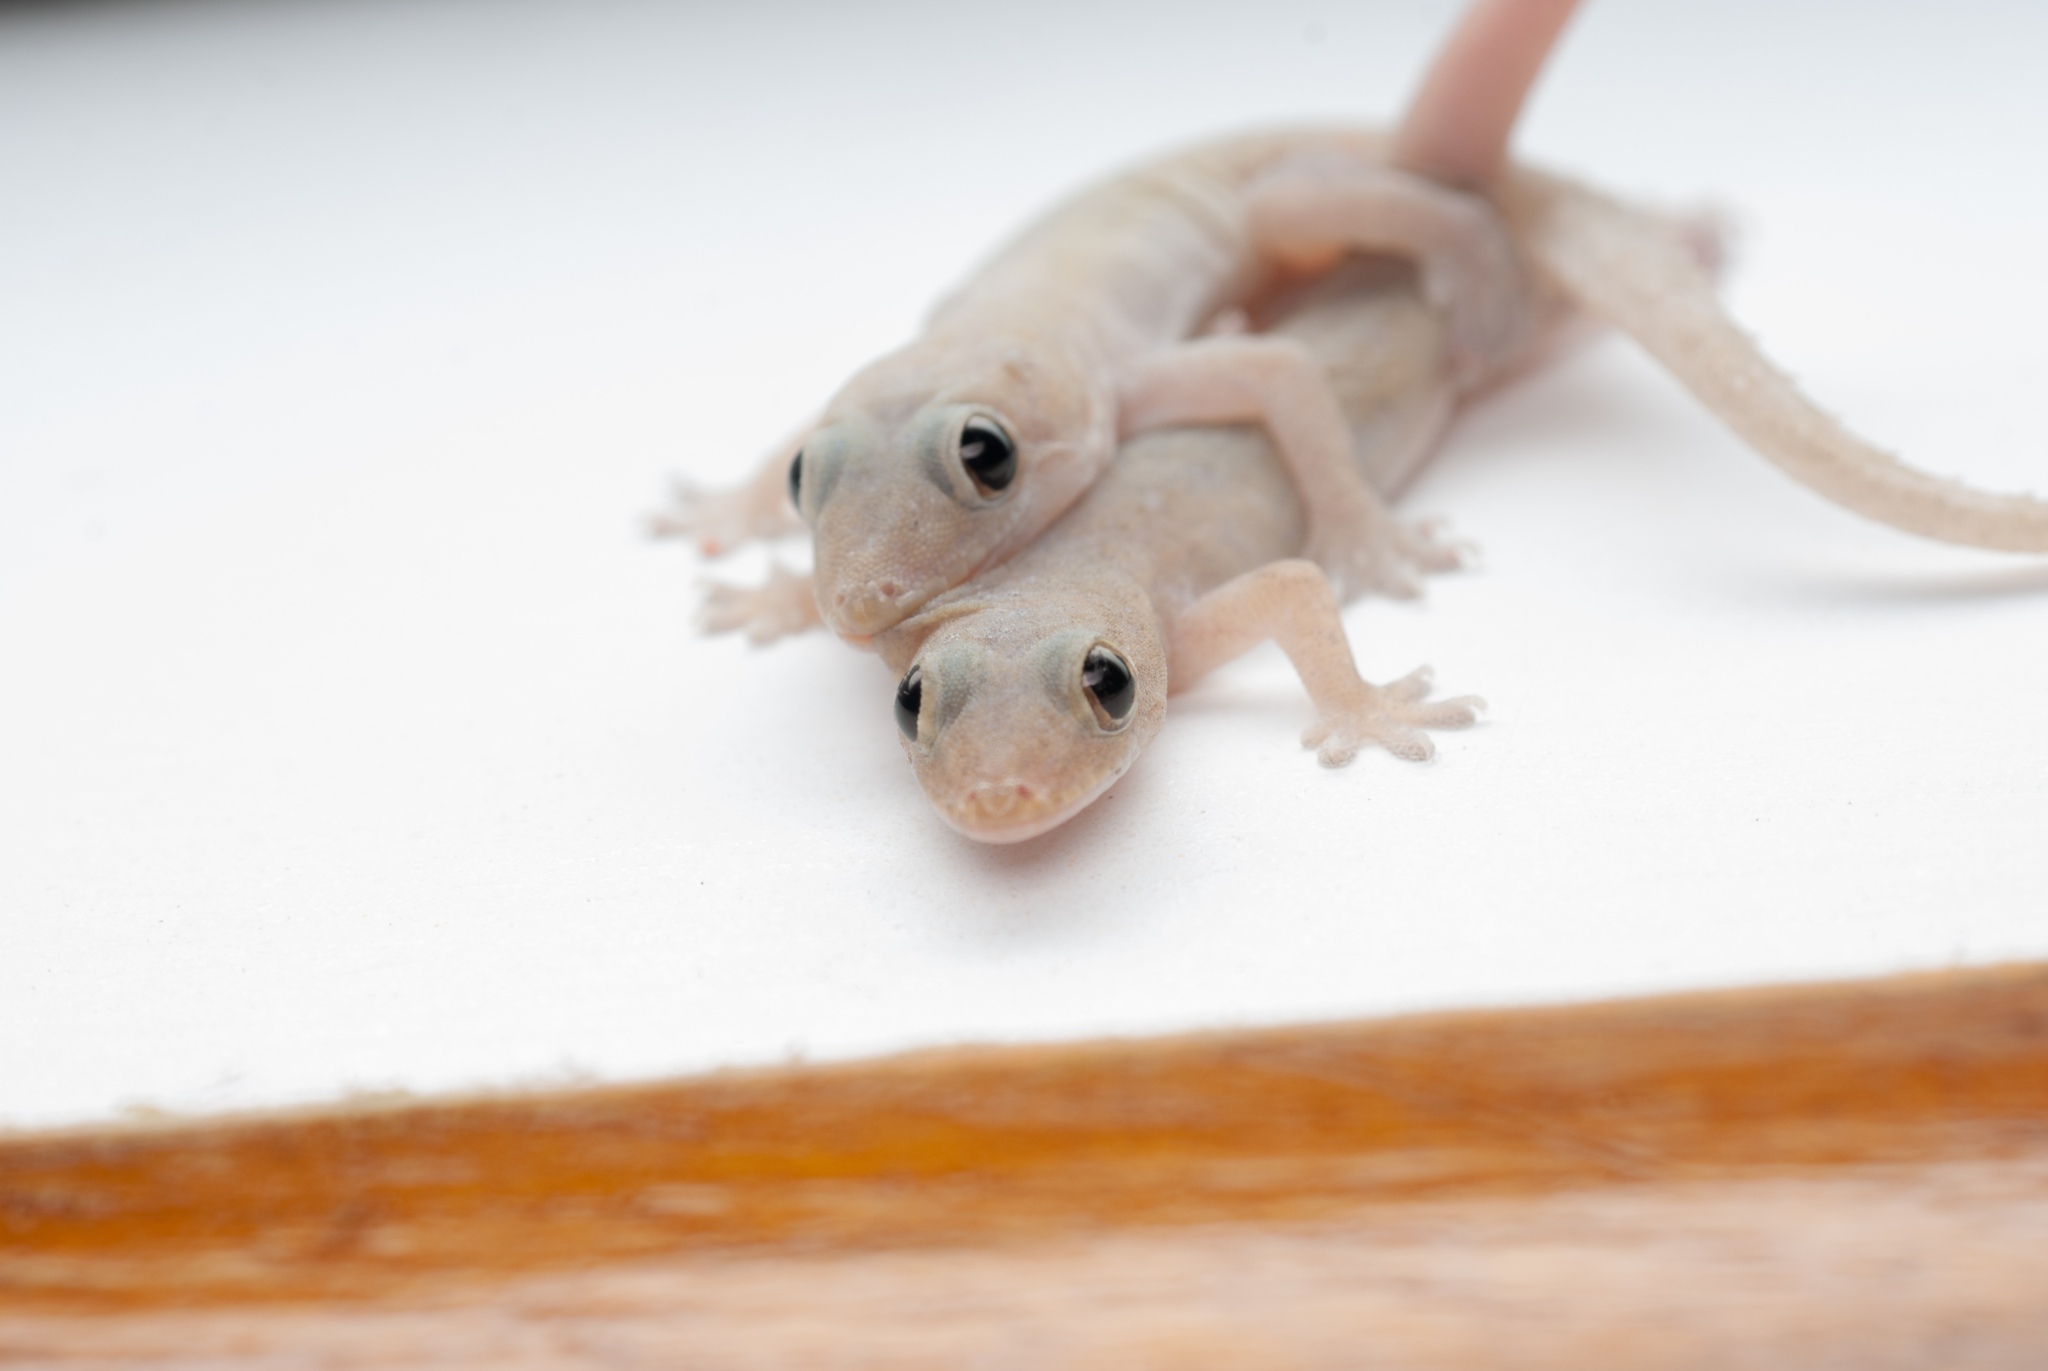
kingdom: Animalia
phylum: Chordata
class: Squamata
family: Gekkonidae
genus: Hemidactylus
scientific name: Hemidactylus frenatus
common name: Common house gecko
